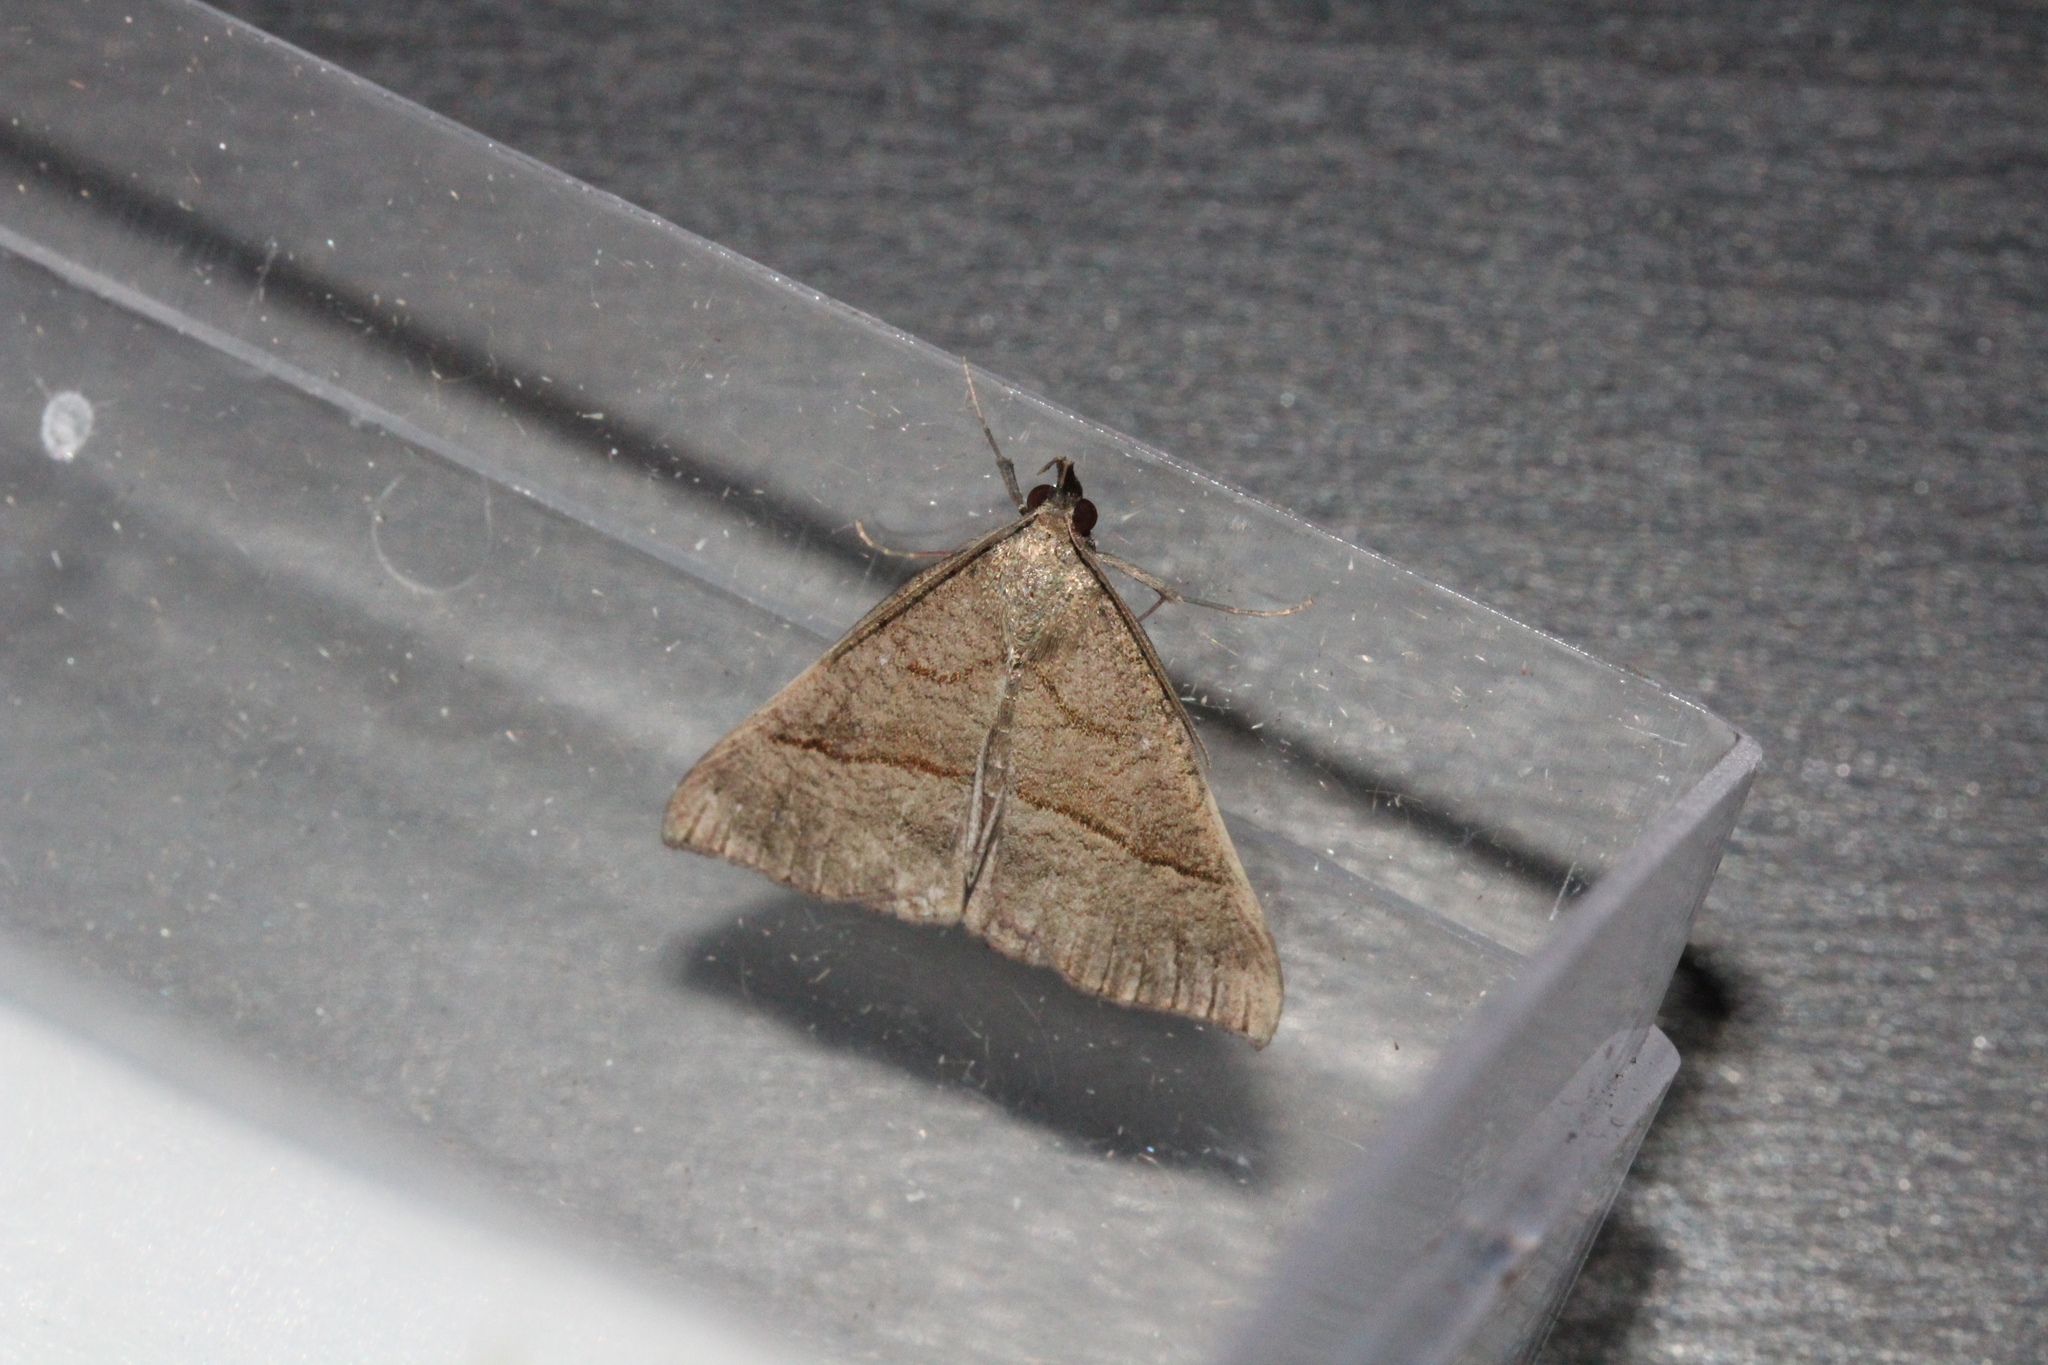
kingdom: Animalia
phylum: Arthropoda
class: Insecta
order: Lepidoptera
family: Erebidae
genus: Hypena
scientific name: Hypena proboscidalis
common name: Snout
